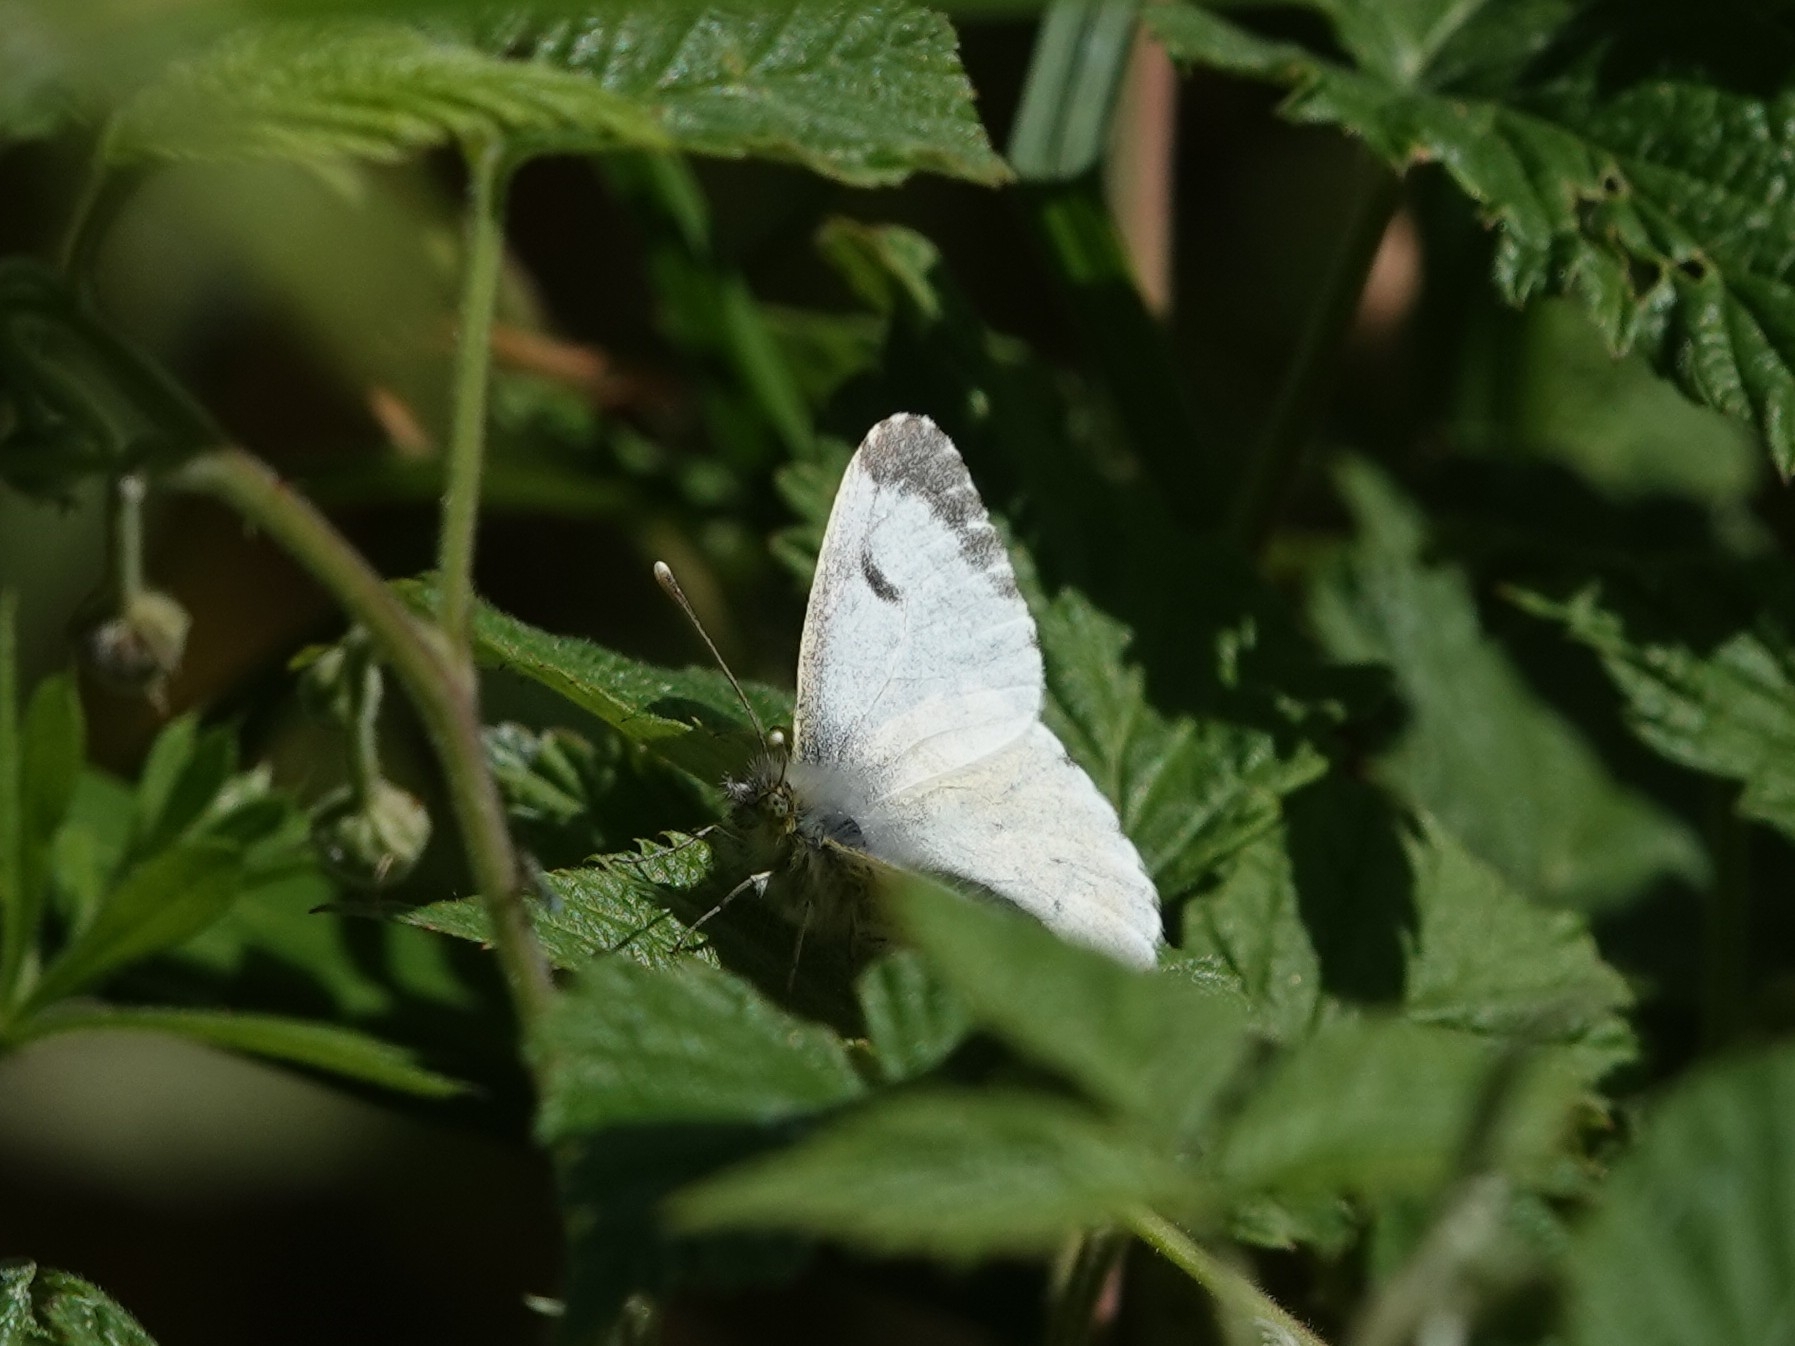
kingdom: Animalia
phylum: Arthropoda
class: Insecta
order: Lepidoptera
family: Pieridae
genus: Anthocharis
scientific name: Anthocharis cardamines
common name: Orange-tip
